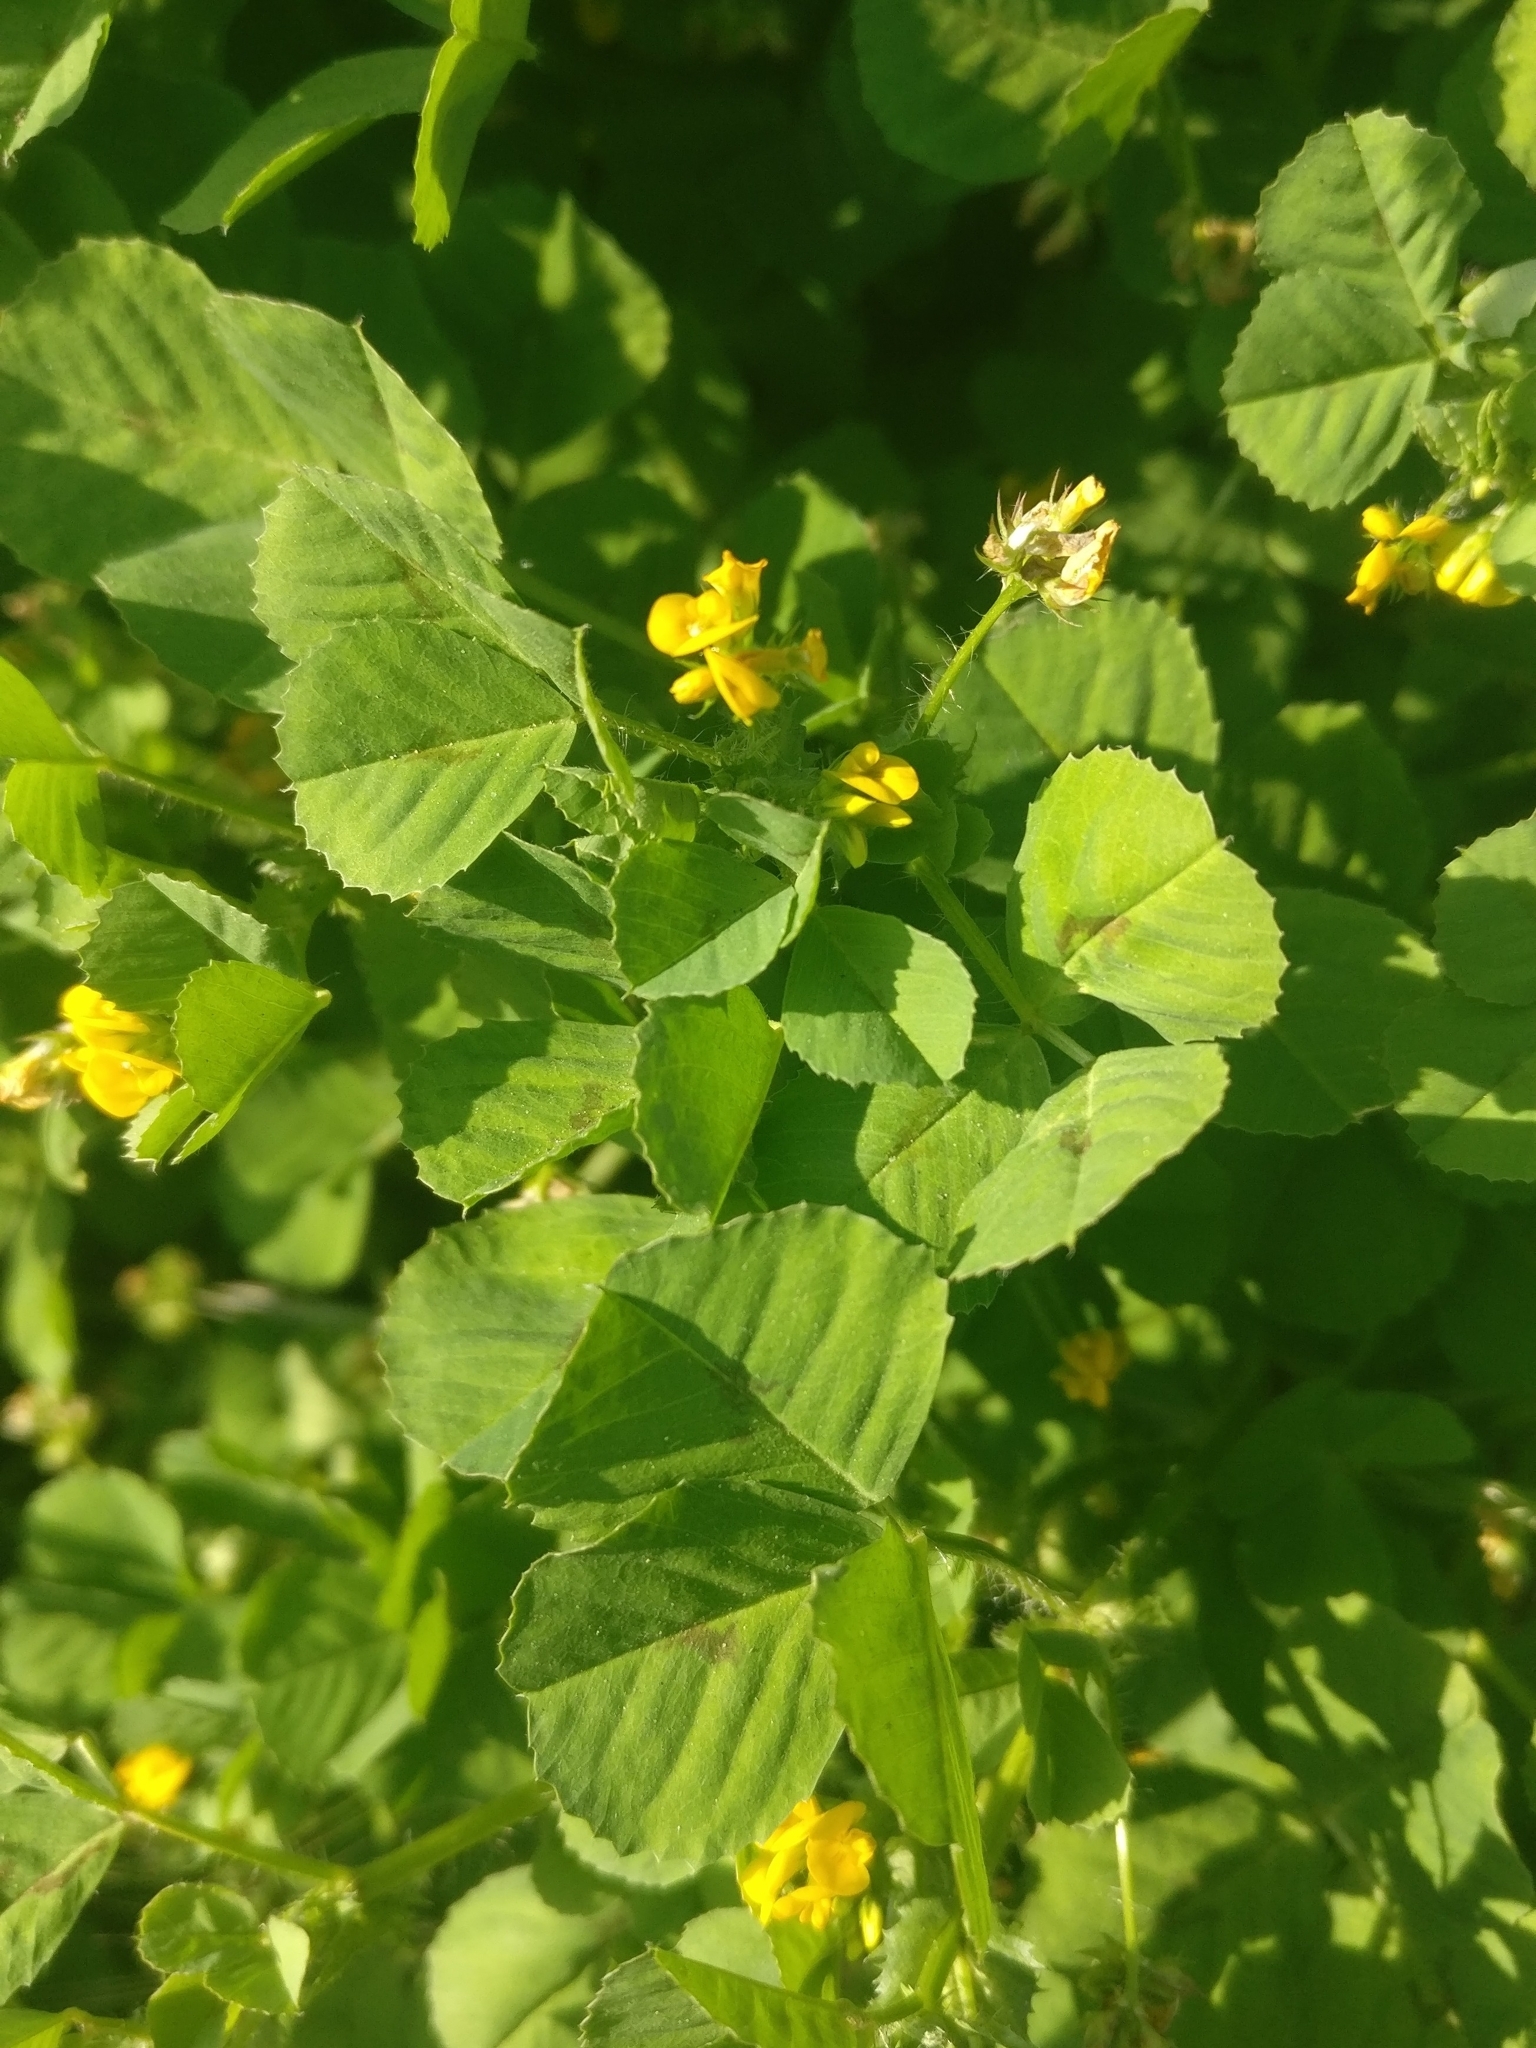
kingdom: Plantae
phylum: Tracheophyta
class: Magnoliopsida
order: Fabales
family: Fabaceae
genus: Medicago
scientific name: Medicago arabica
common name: Spotted medick
